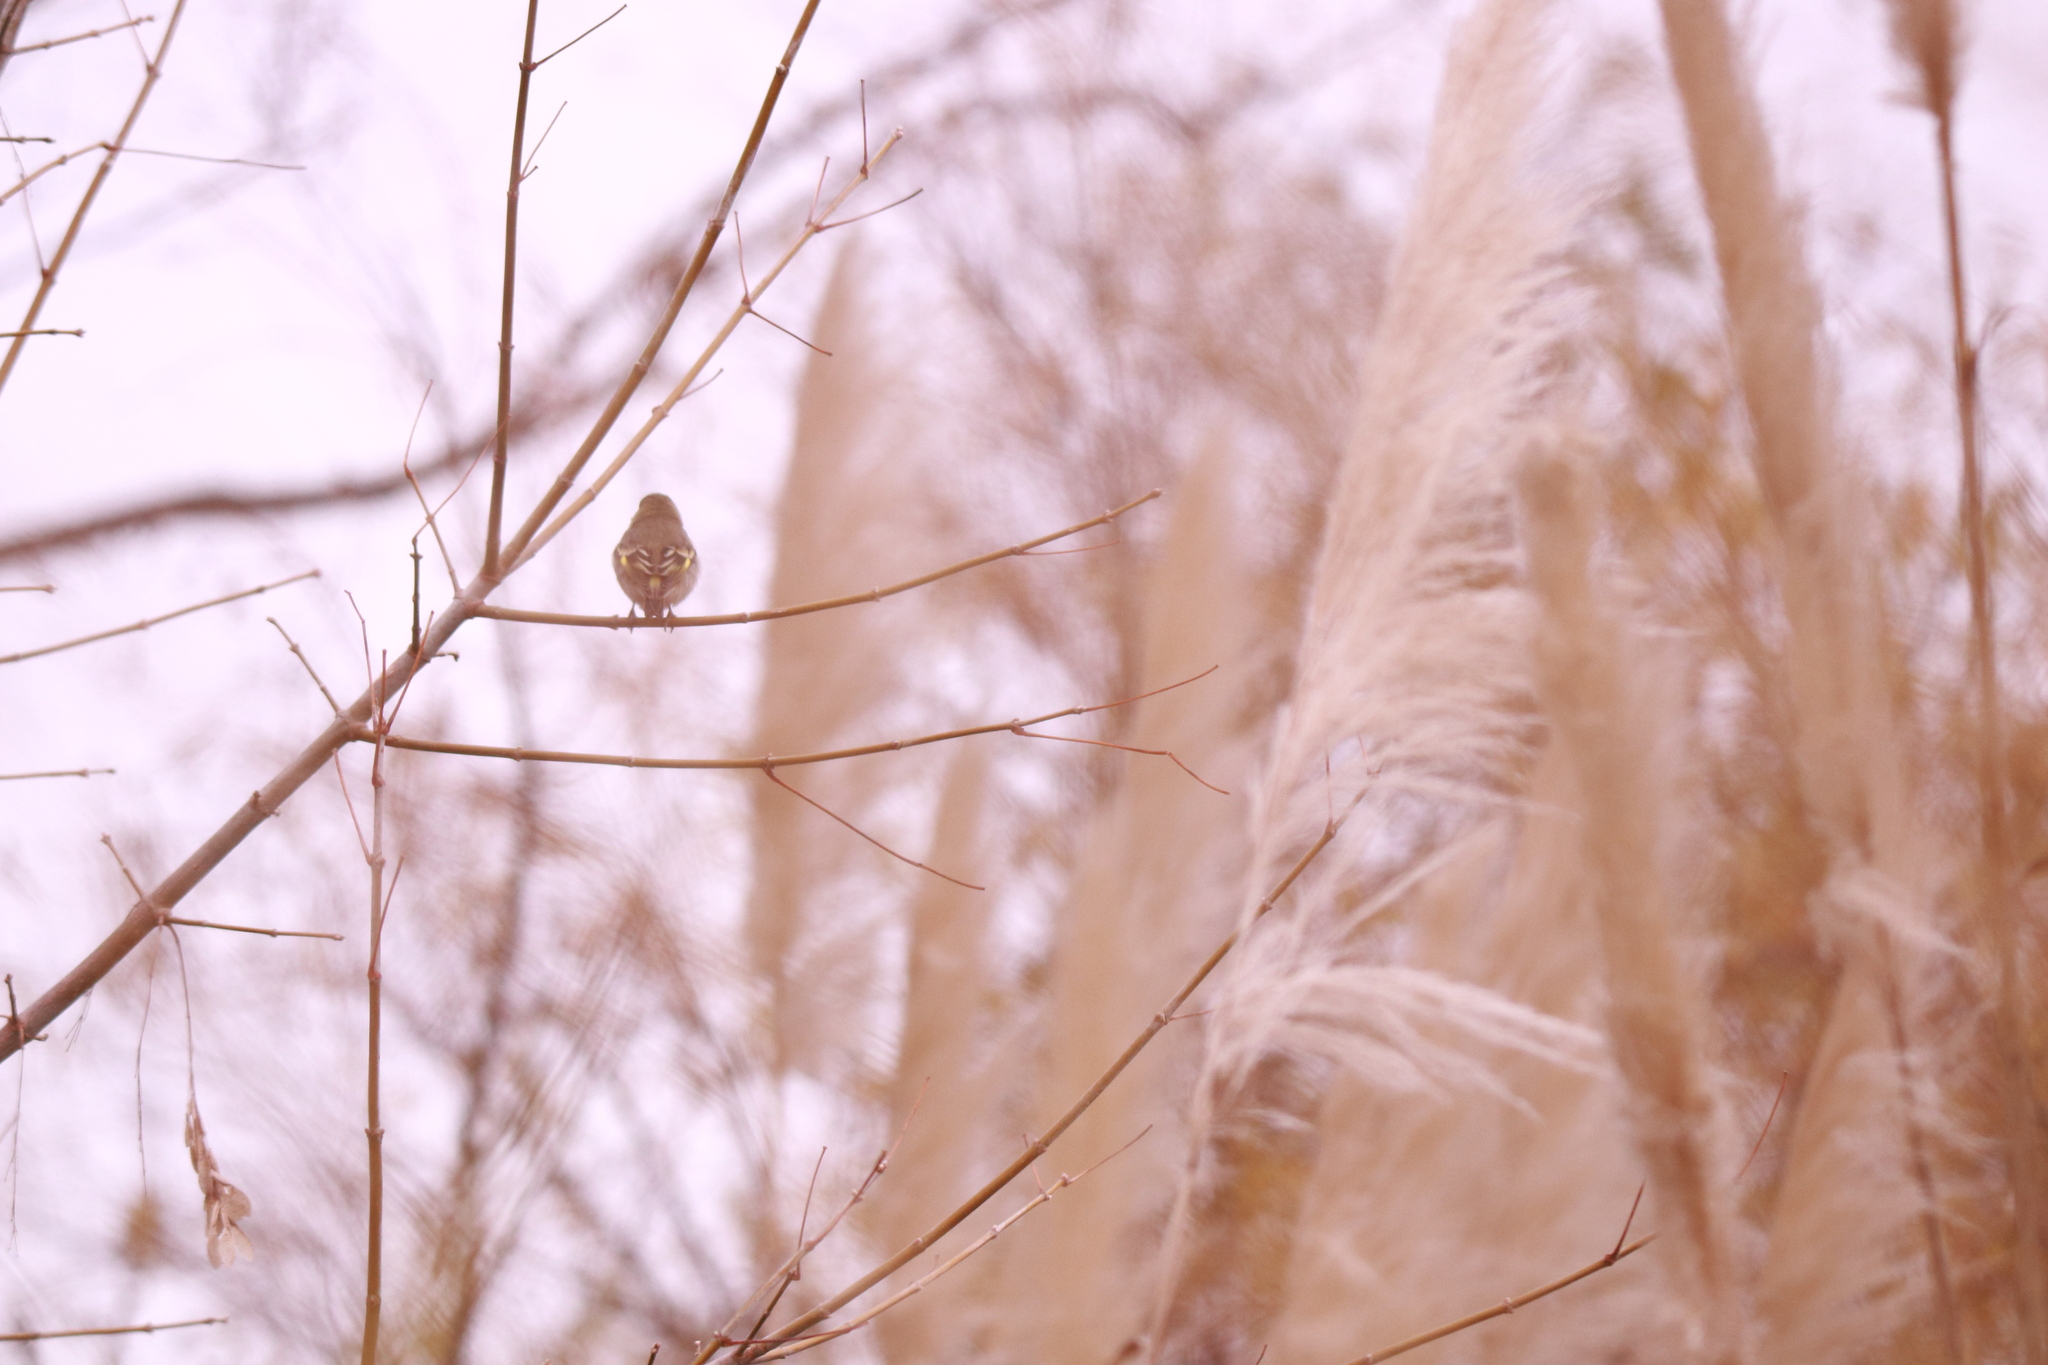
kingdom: Animalia
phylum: Chordata
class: Aves
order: Passeriformes
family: Fringillidae
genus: Spinus
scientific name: Spinus magellanicus
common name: Hooded siskin
